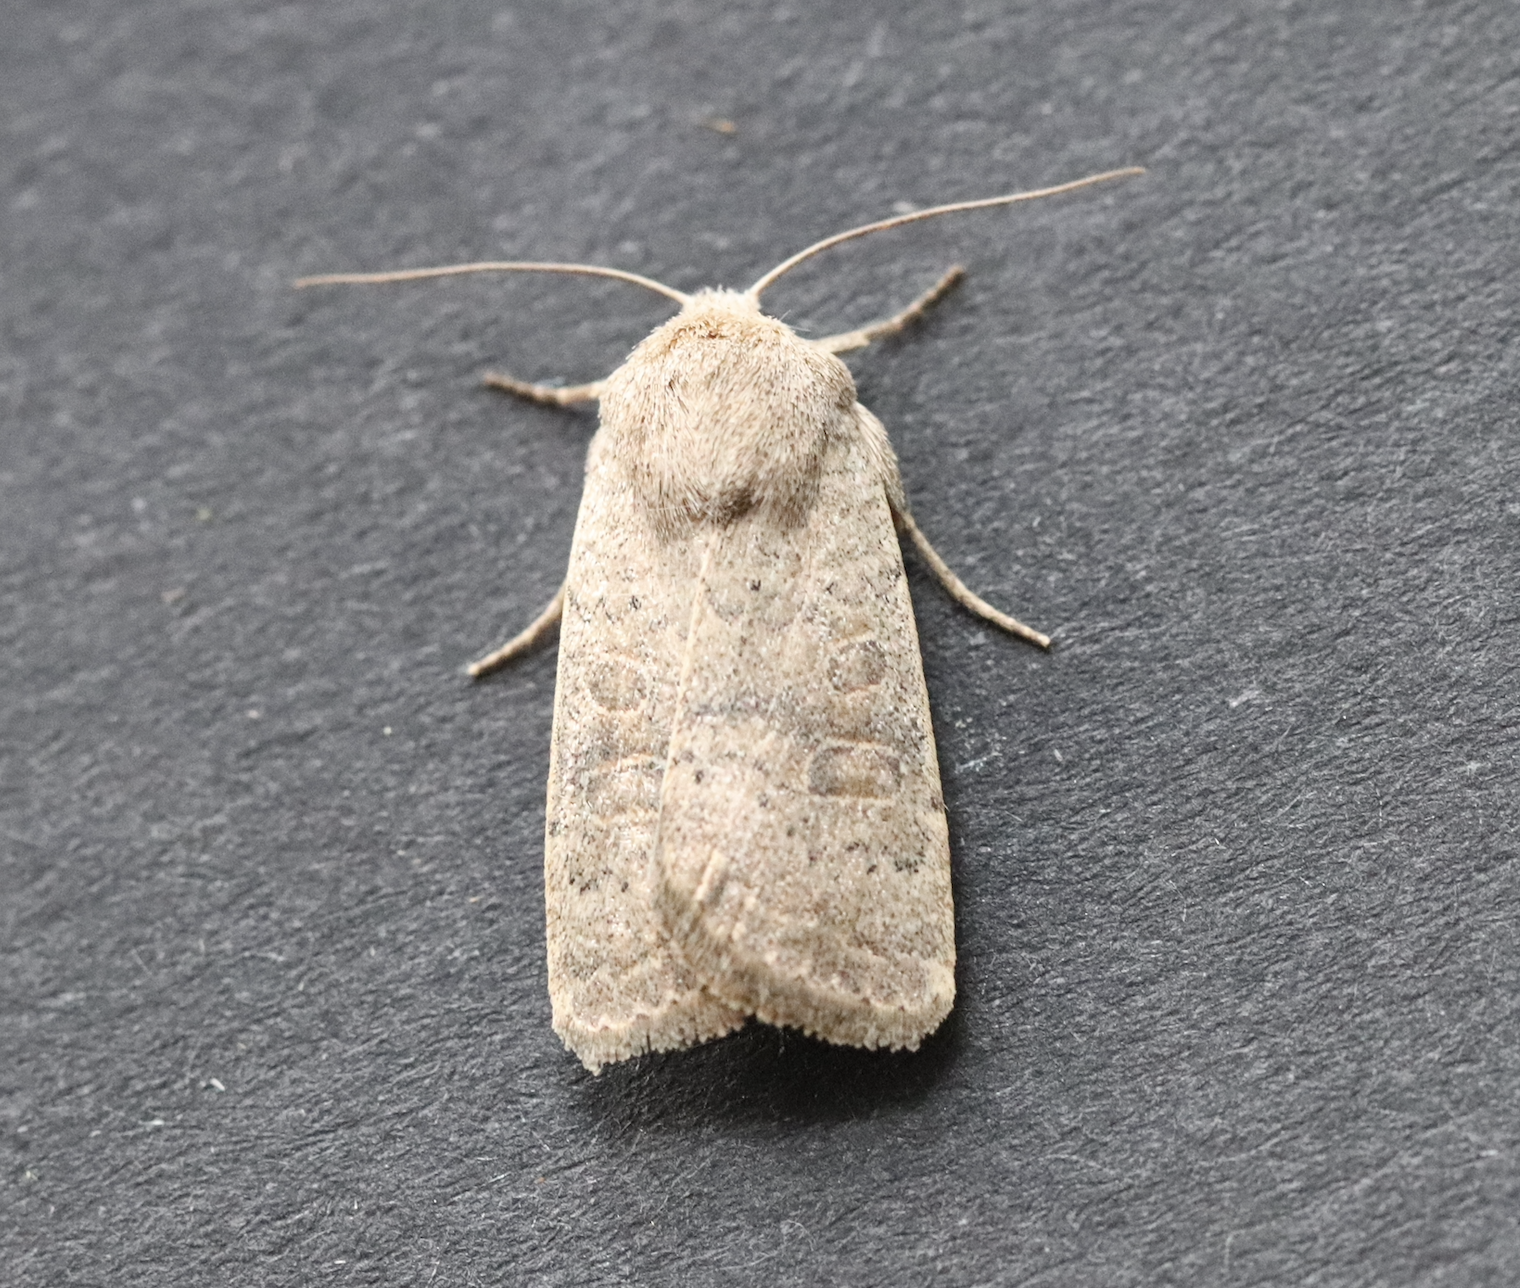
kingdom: Animalia
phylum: Arthropoda
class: Insecta
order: Lepidoptera
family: Noctuidae
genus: Hoplodrina
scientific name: Hoplodrina ambigua
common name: Vine's rustic
